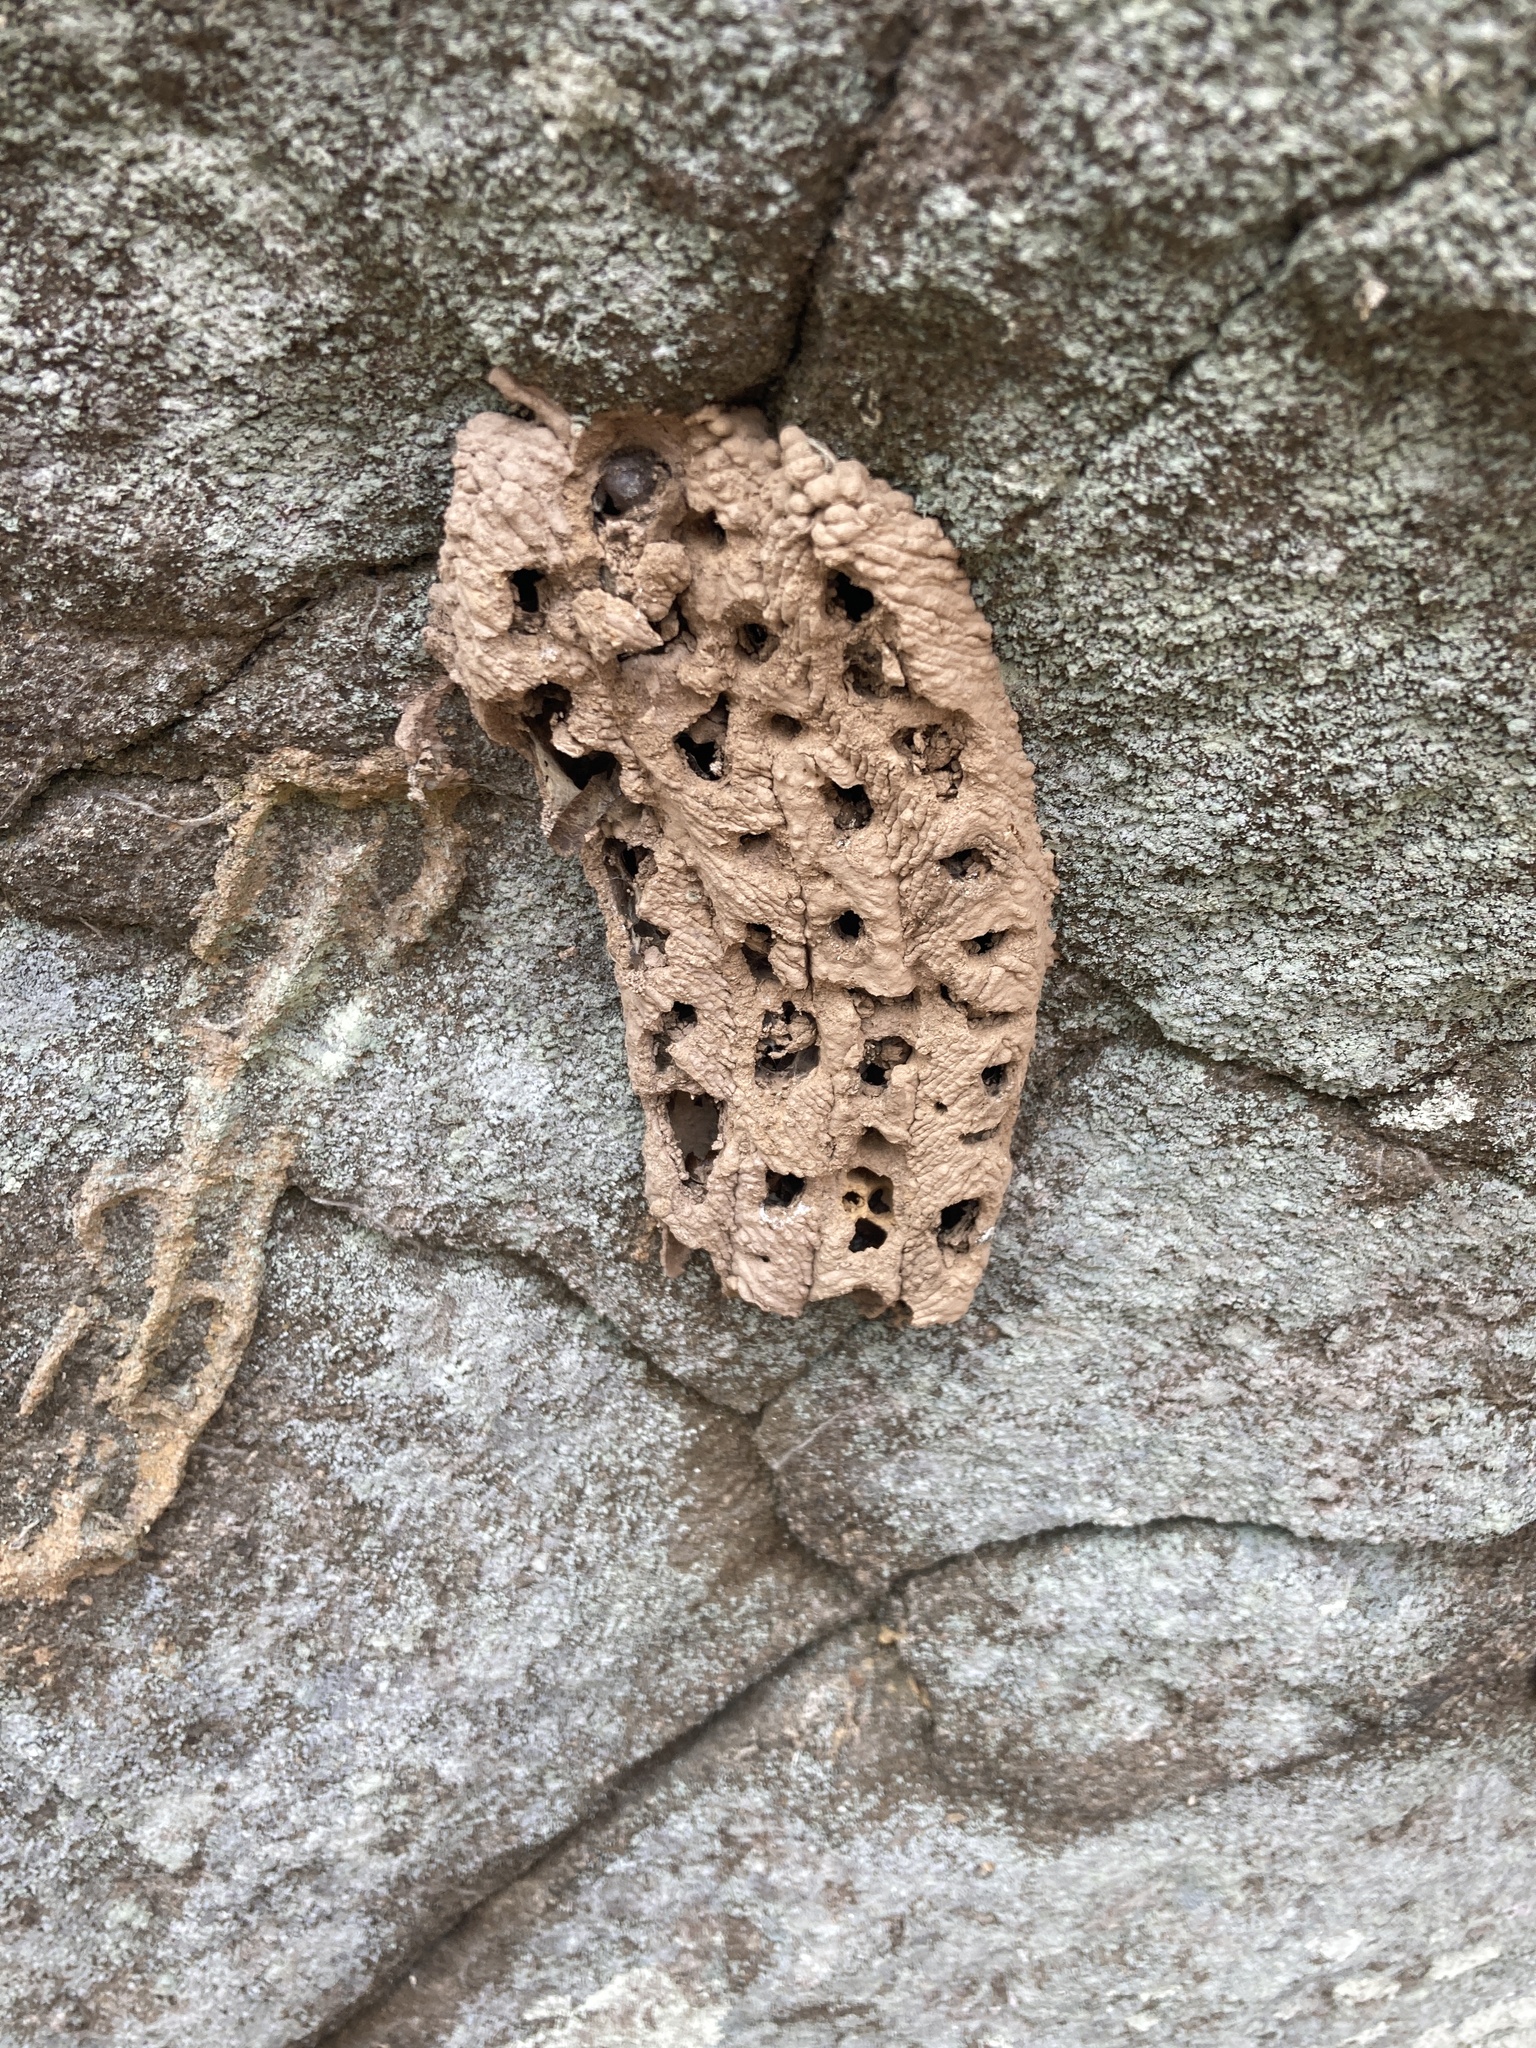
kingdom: Animalia
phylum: Arthropoda
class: Insecta
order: Hymenoptera
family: Crabronidae
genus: Trypoxylon
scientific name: Trypoxylon politum
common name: Organ-pipe mud-dauber wasp
